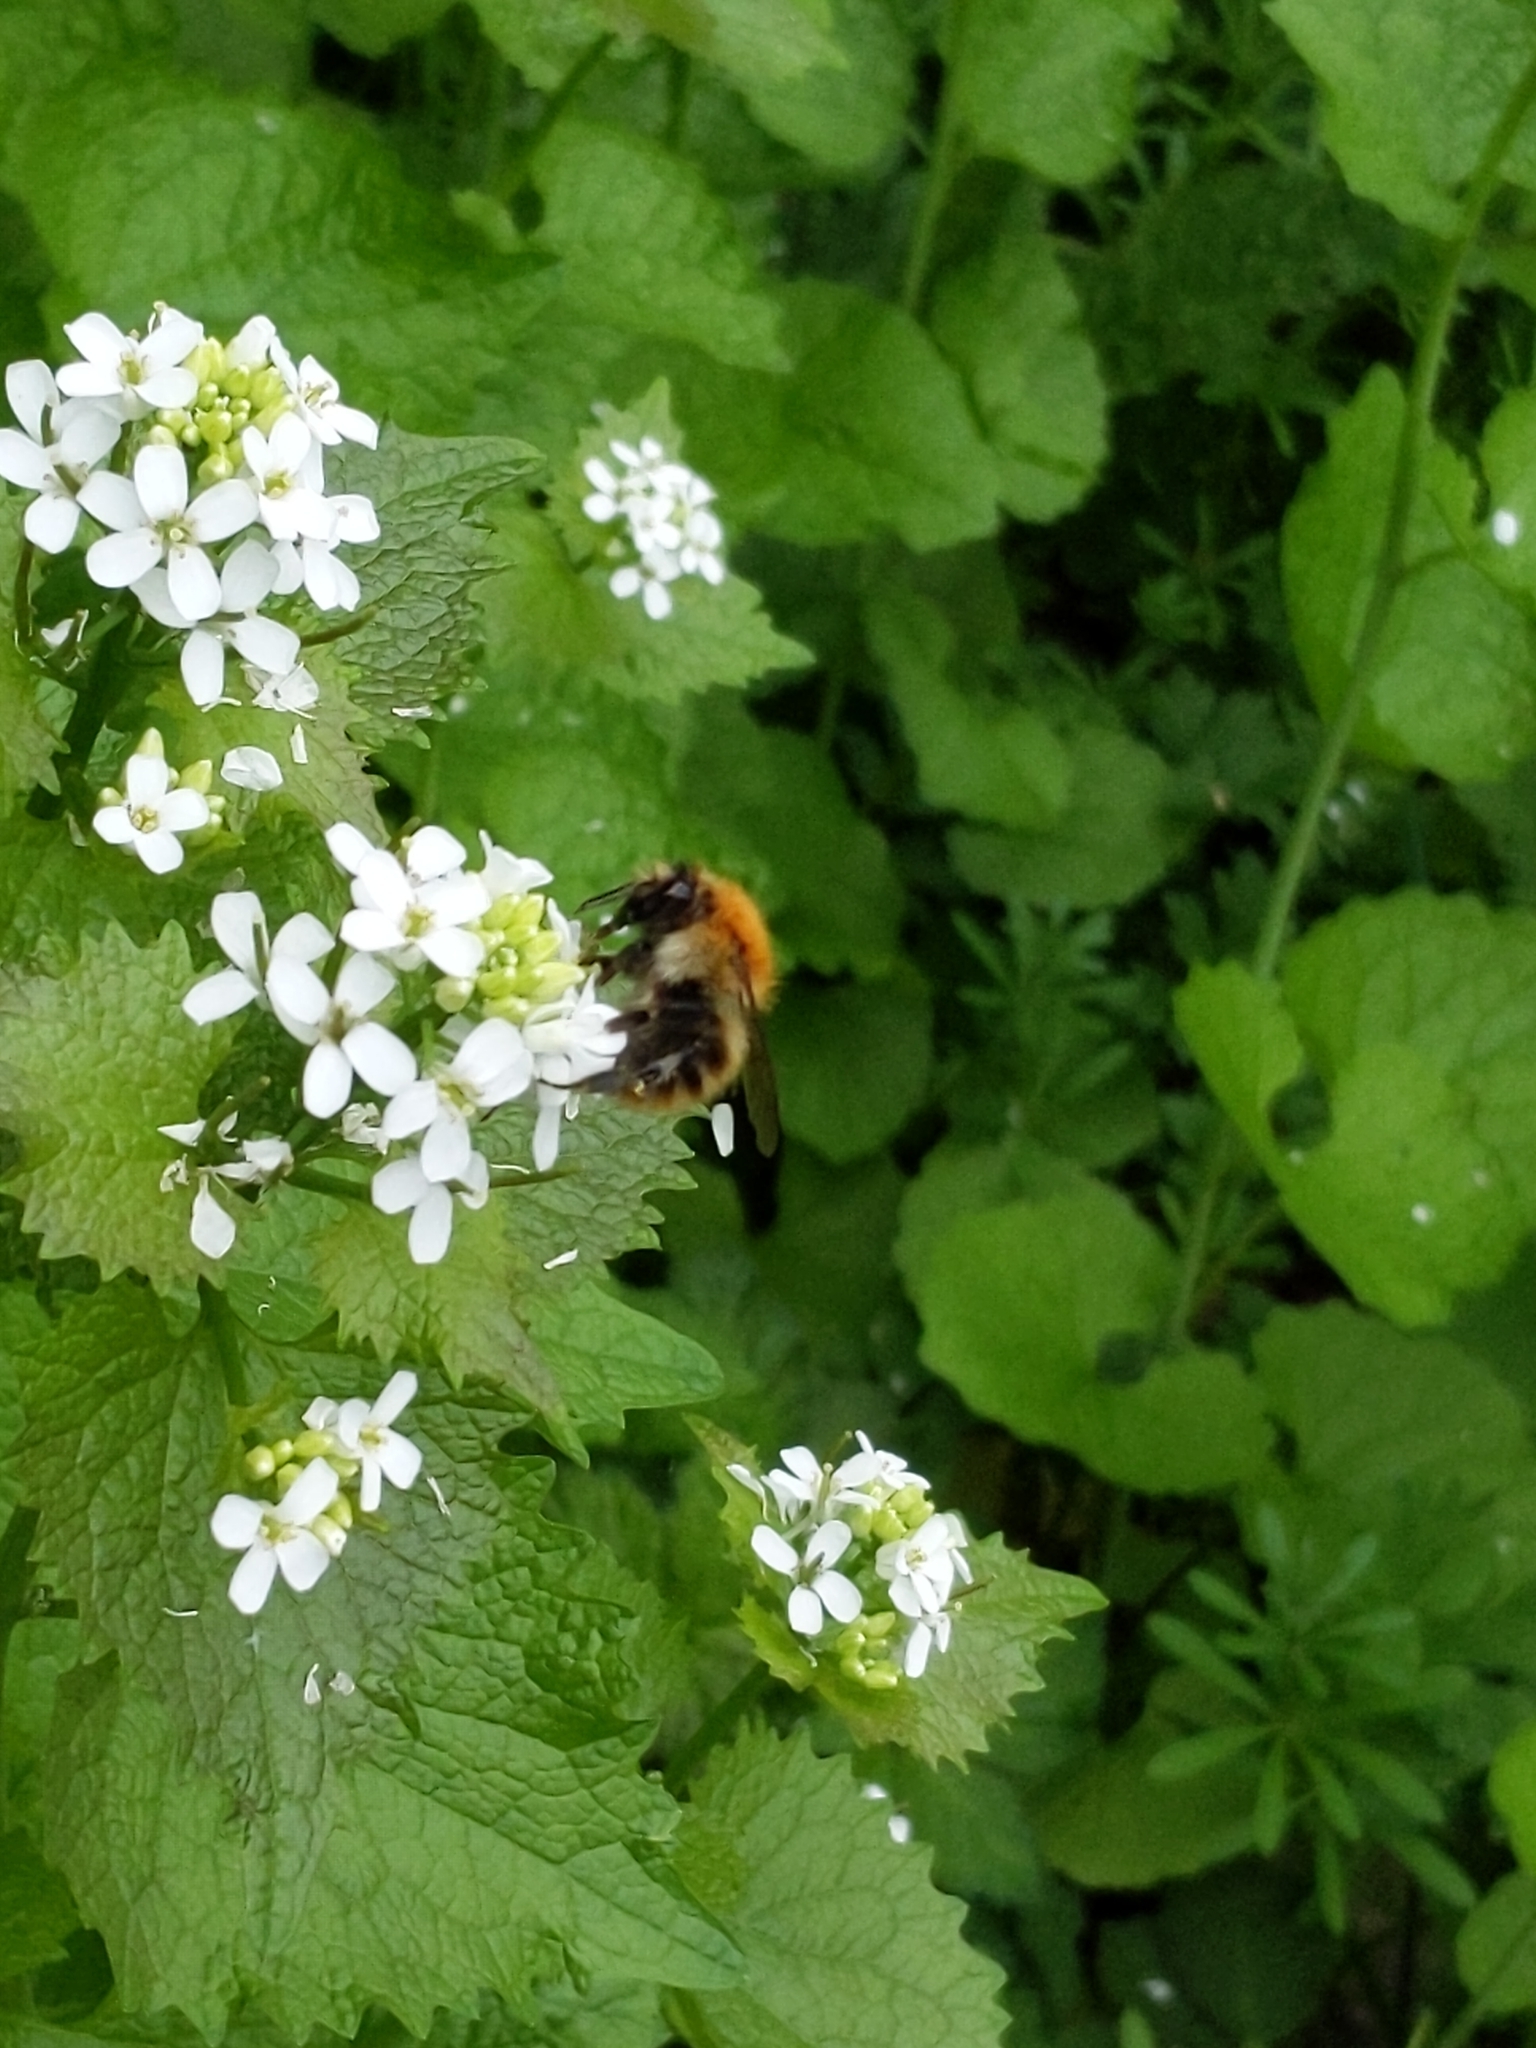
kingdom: Animalia
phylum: Arthropoda
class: Insecta
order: Hymenoptera
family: Apidae
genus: Bombus
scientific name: Bombus pascuorum
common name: Common carder bee
